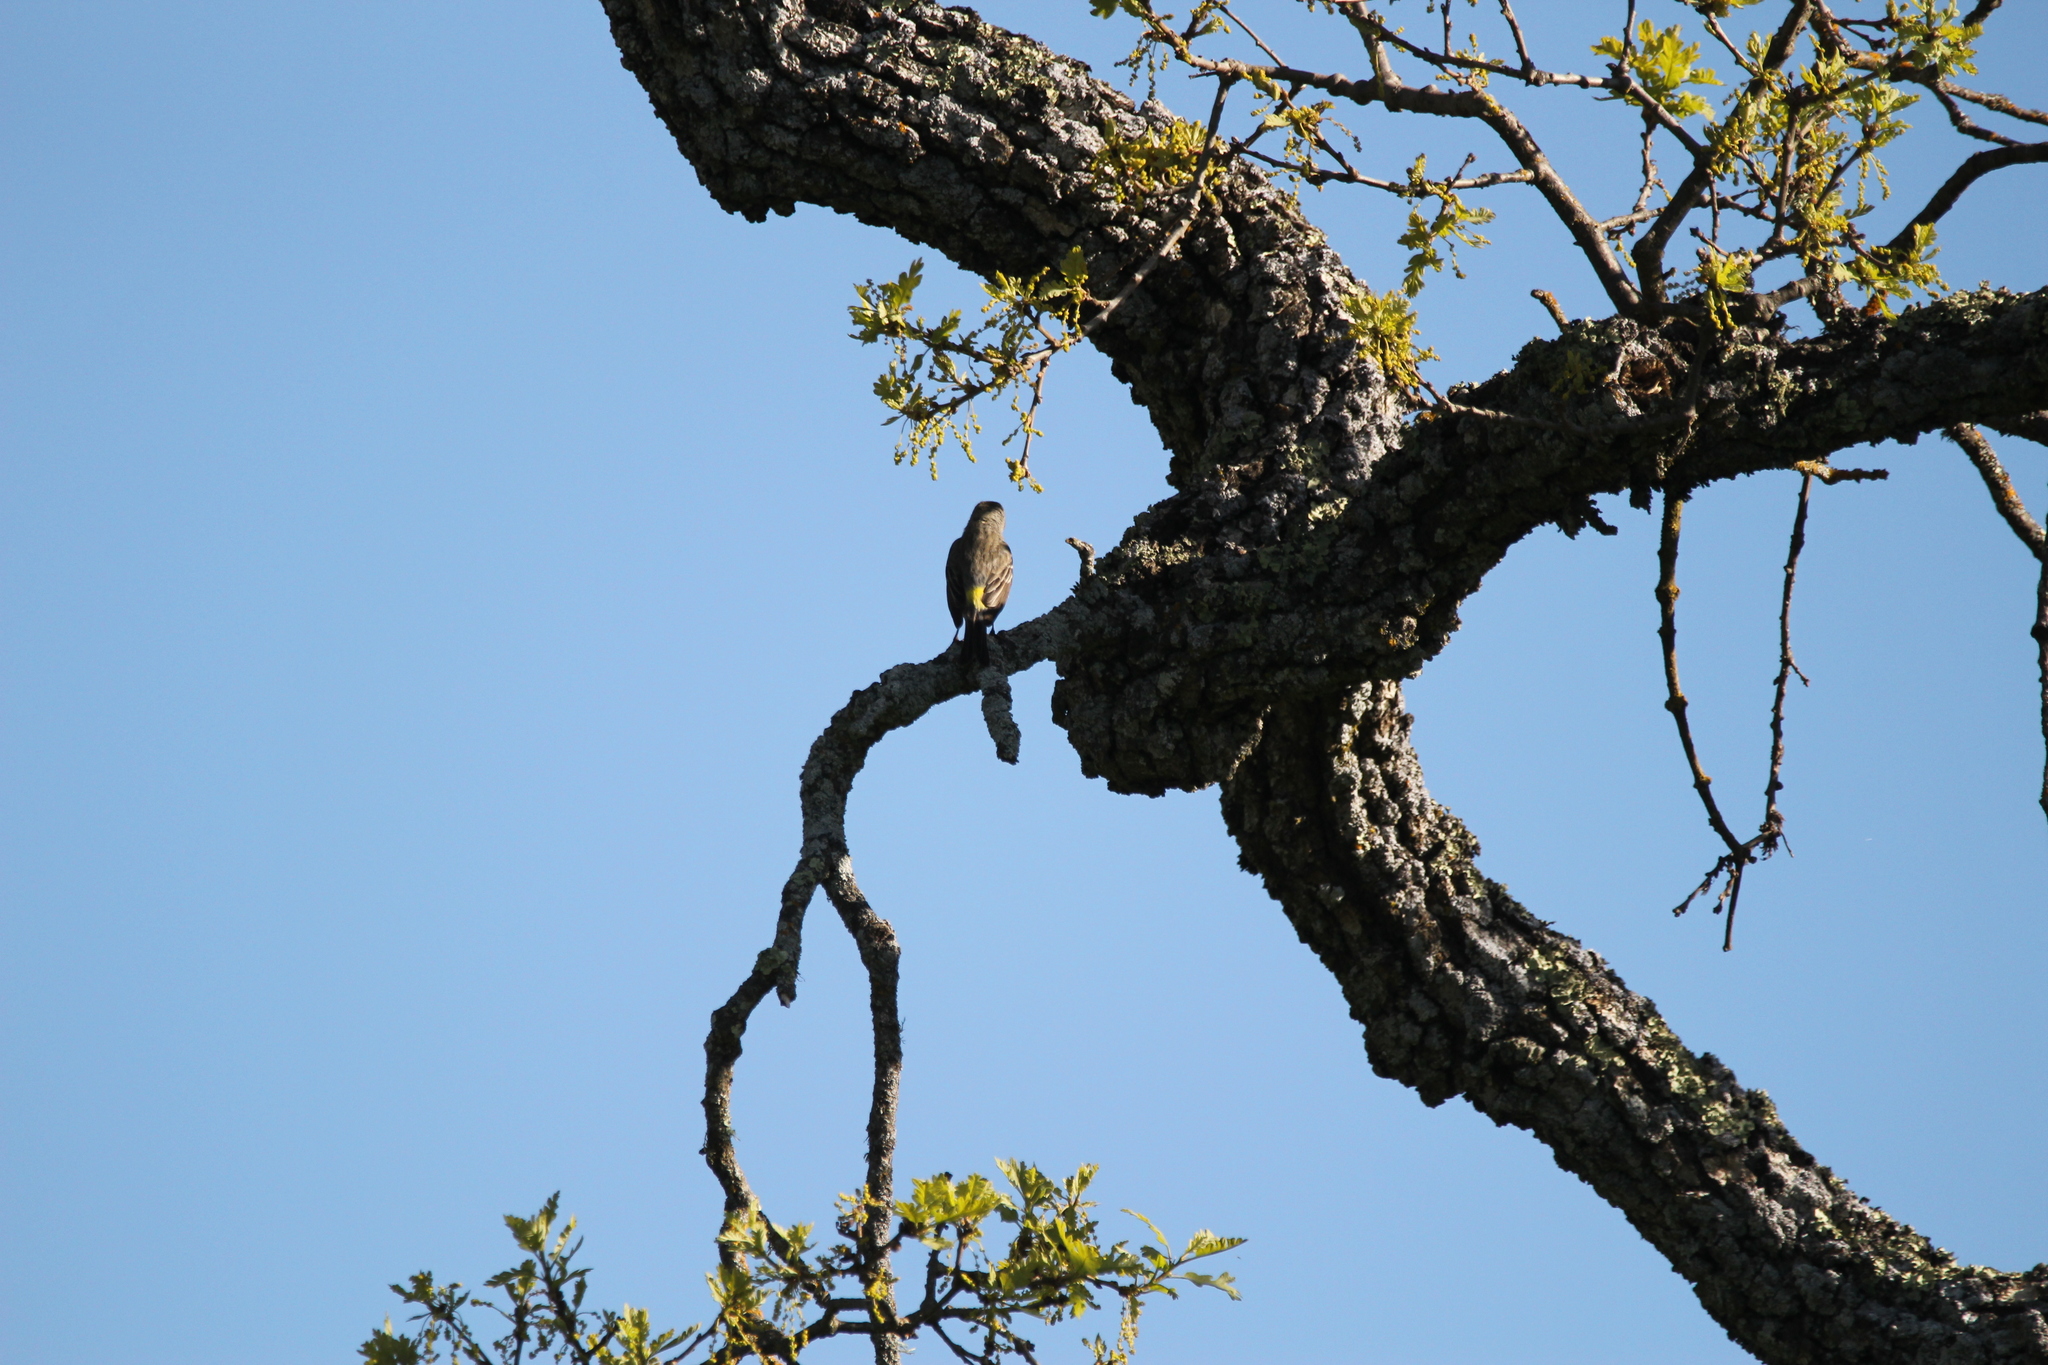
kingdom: Animalia
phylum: Chordata
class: Aves
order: Passeriformes
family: Parulidae
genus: Setophaga
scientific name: Setophaga coronata
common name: Myrtle warbler
